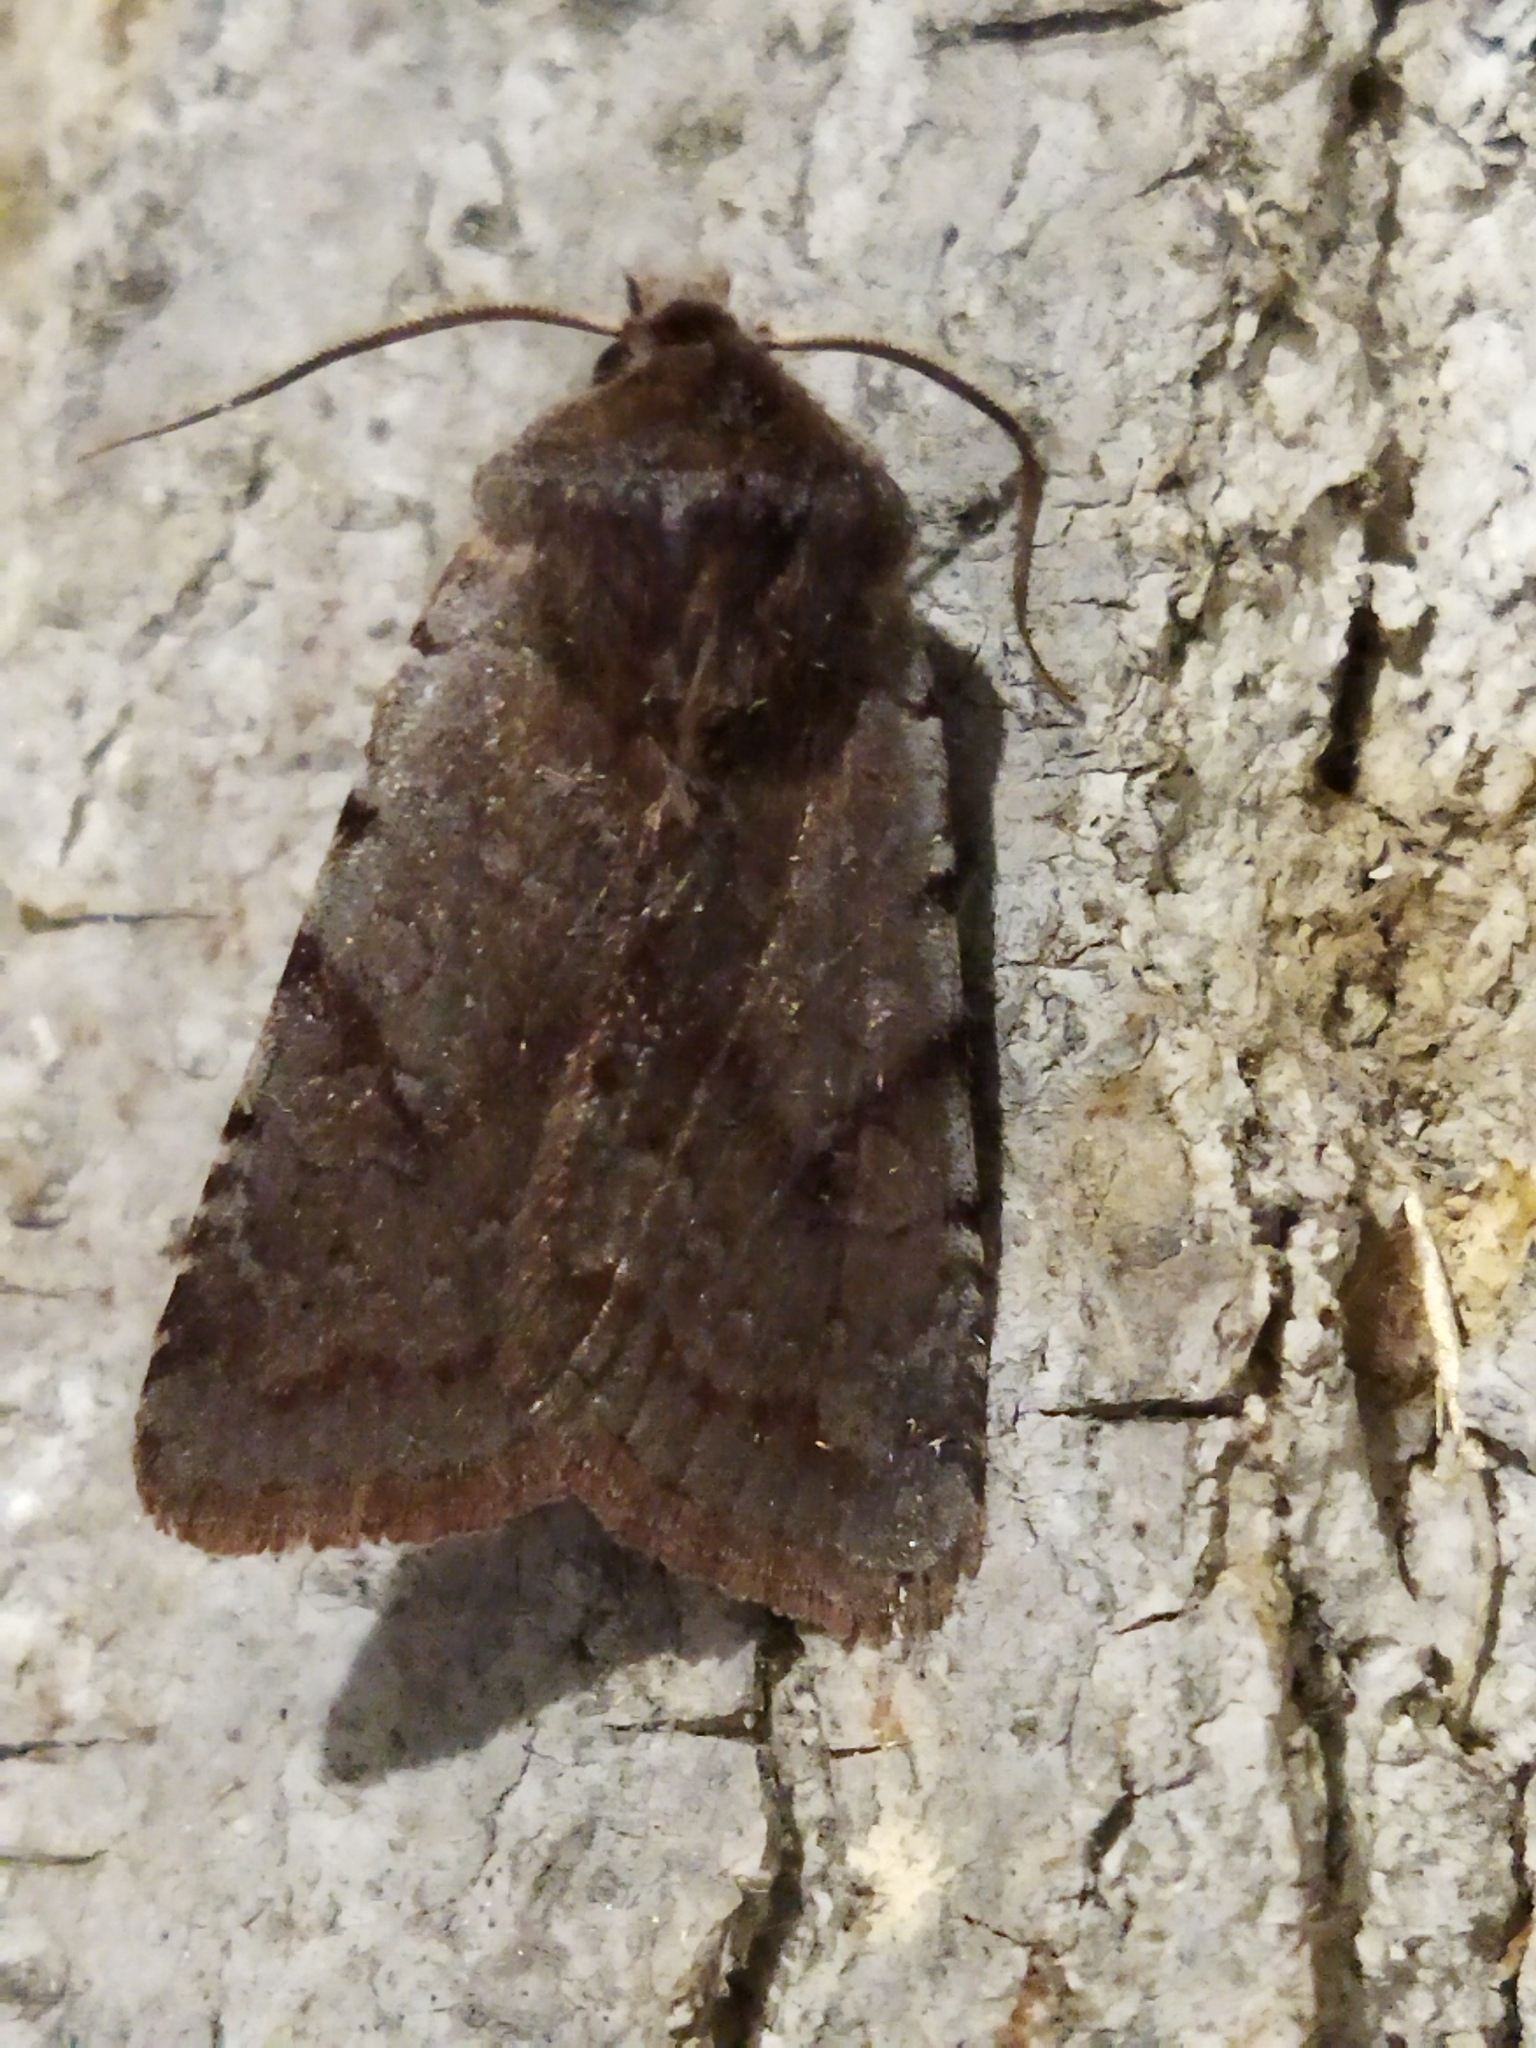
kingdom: Animalia
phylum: Arthropoda
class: Insecta
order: Lepidoptera
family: Noctuidae
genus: Cerastis
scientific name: Cerastis rubricosa
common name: Red chestnut
